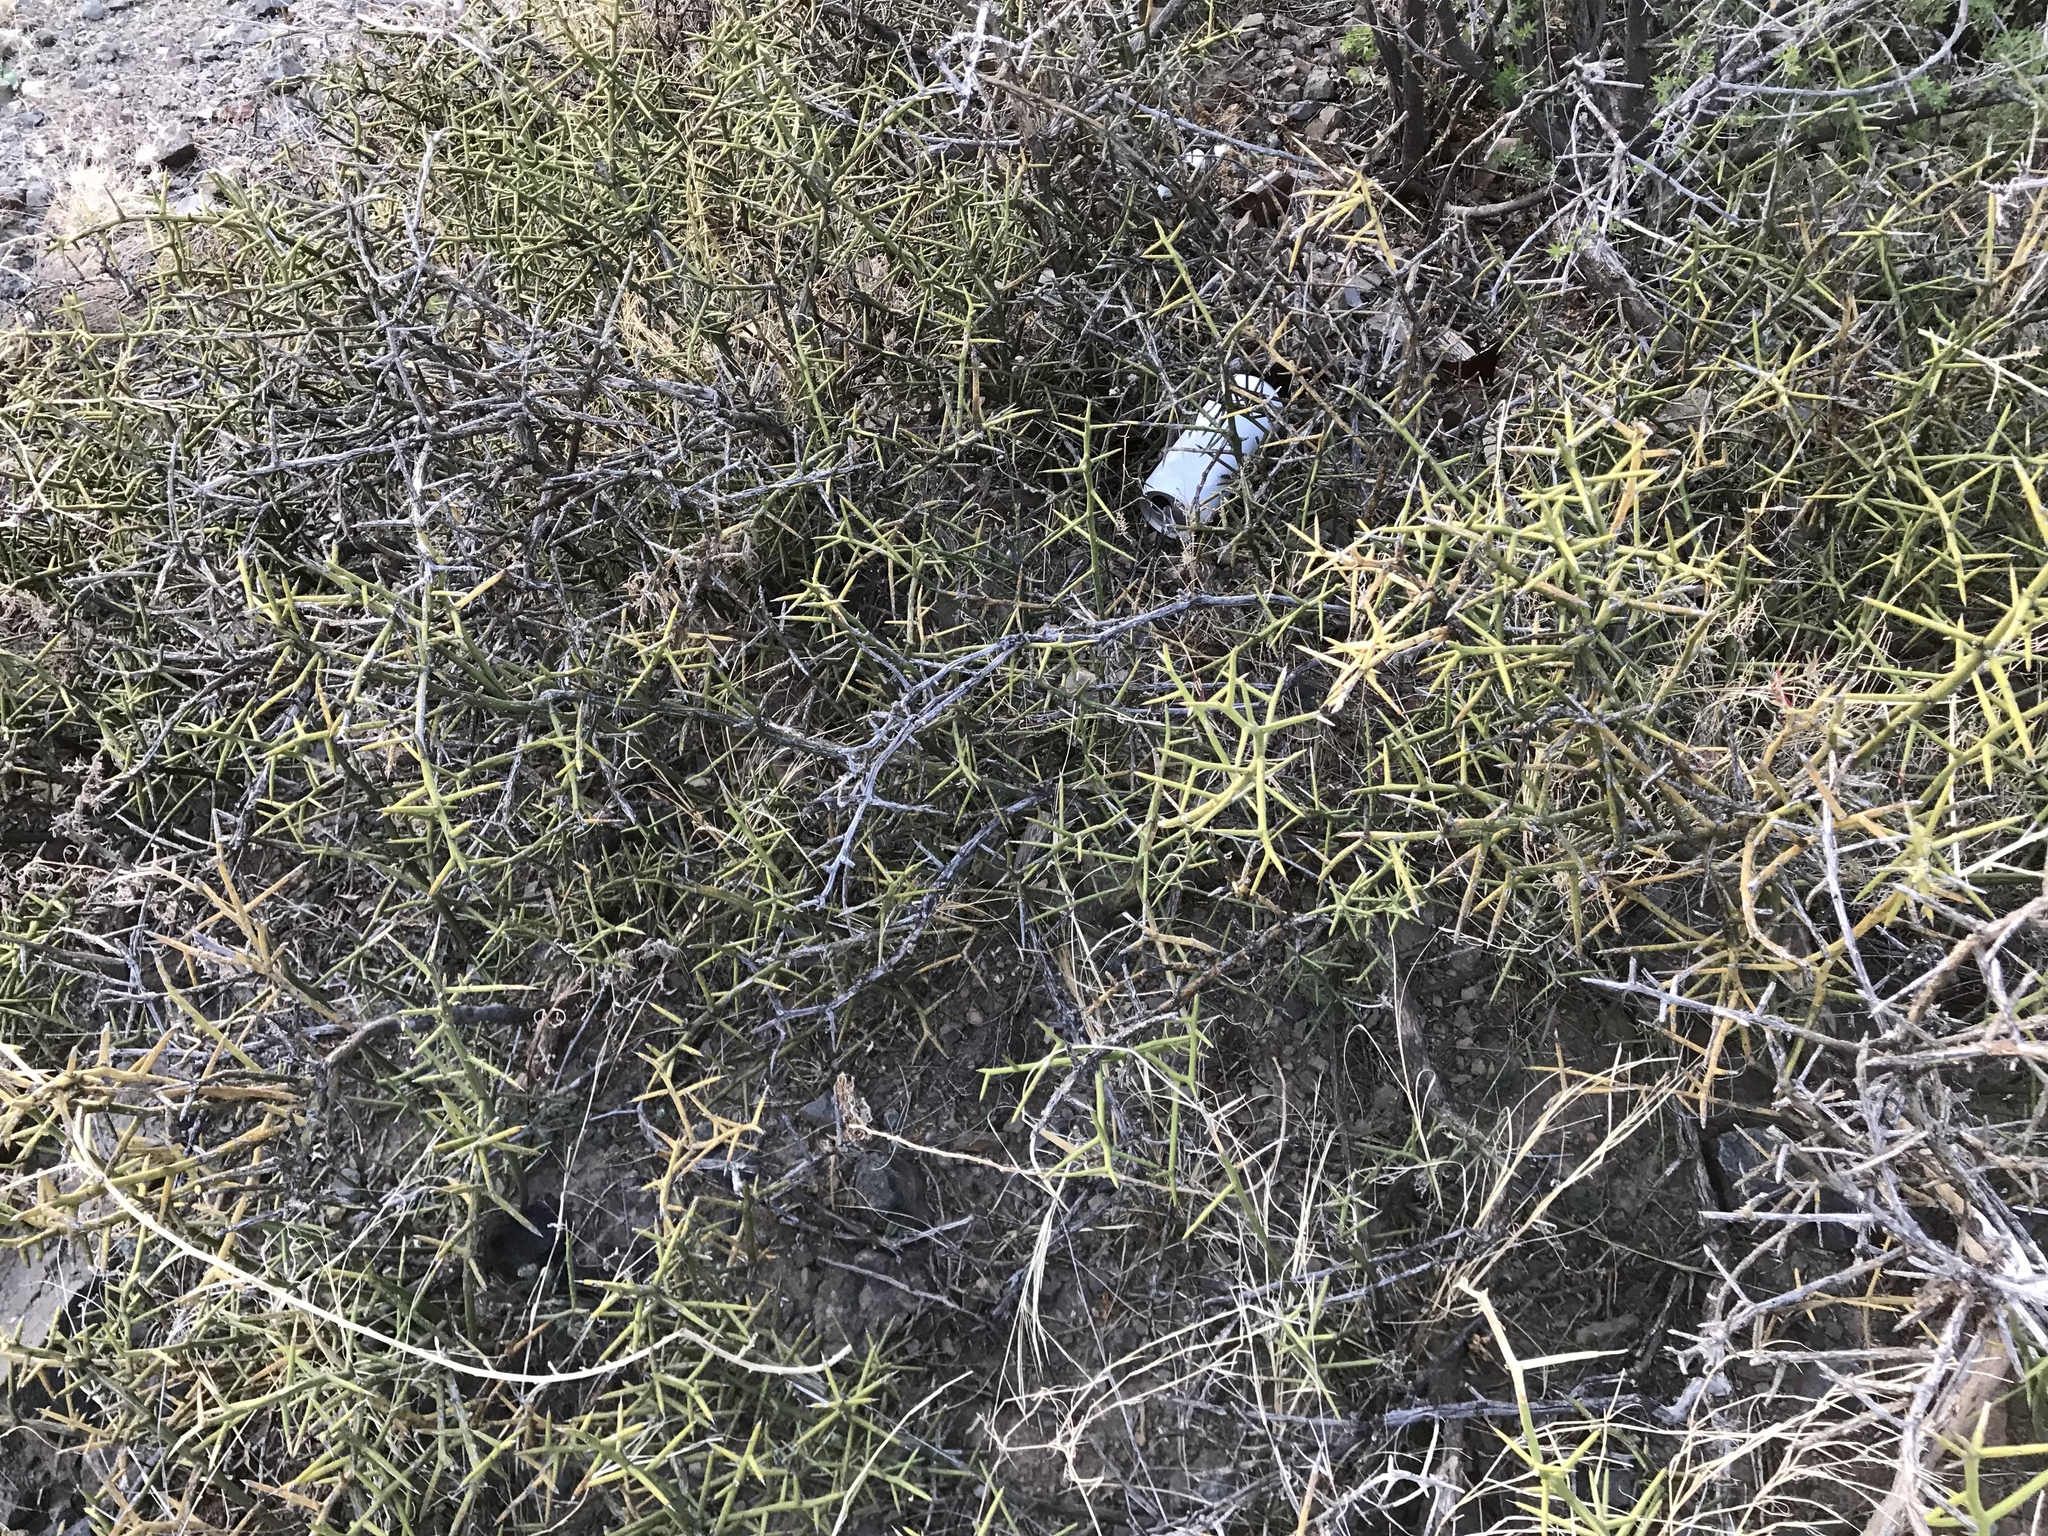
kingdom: Plantae
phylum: Tracheophyta
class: Magnoliopsida
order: Brassicales
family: Koeberliniaceae
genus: Koeberlinia
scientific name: Koeberlinia spinosa
